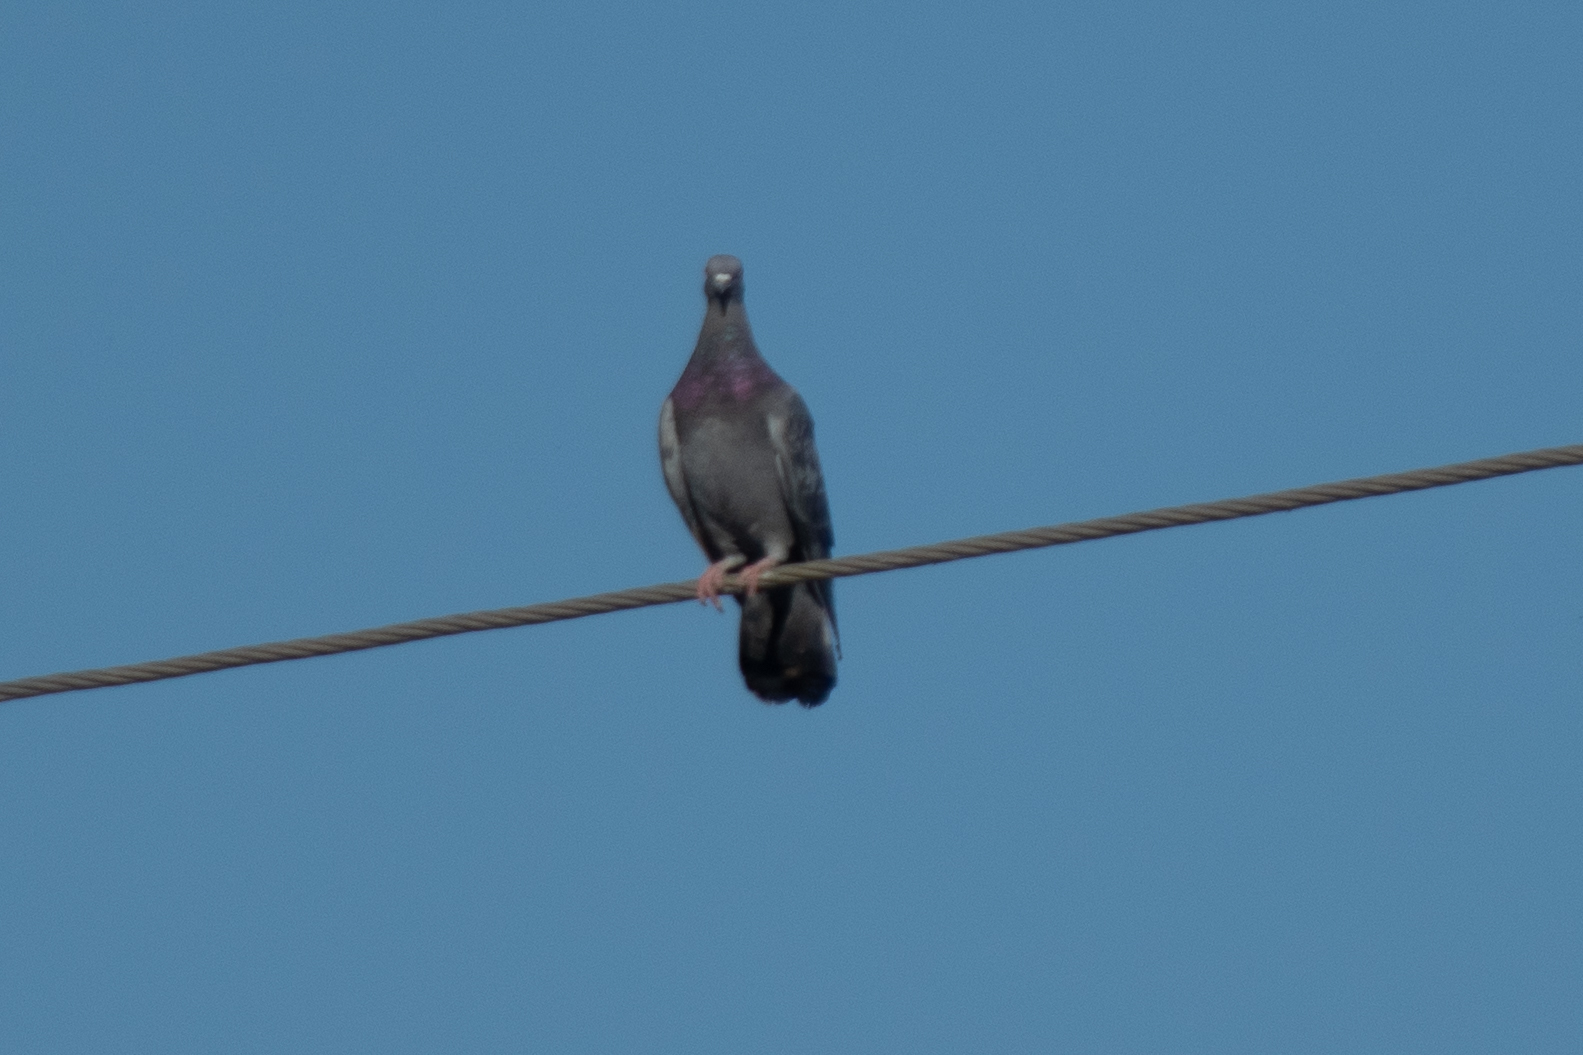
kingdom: Animalia
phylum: Chordata
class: Aves
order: Columbiformes
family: Columbidae
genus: Columba
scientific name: Columba livia
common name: Rock pigeon
